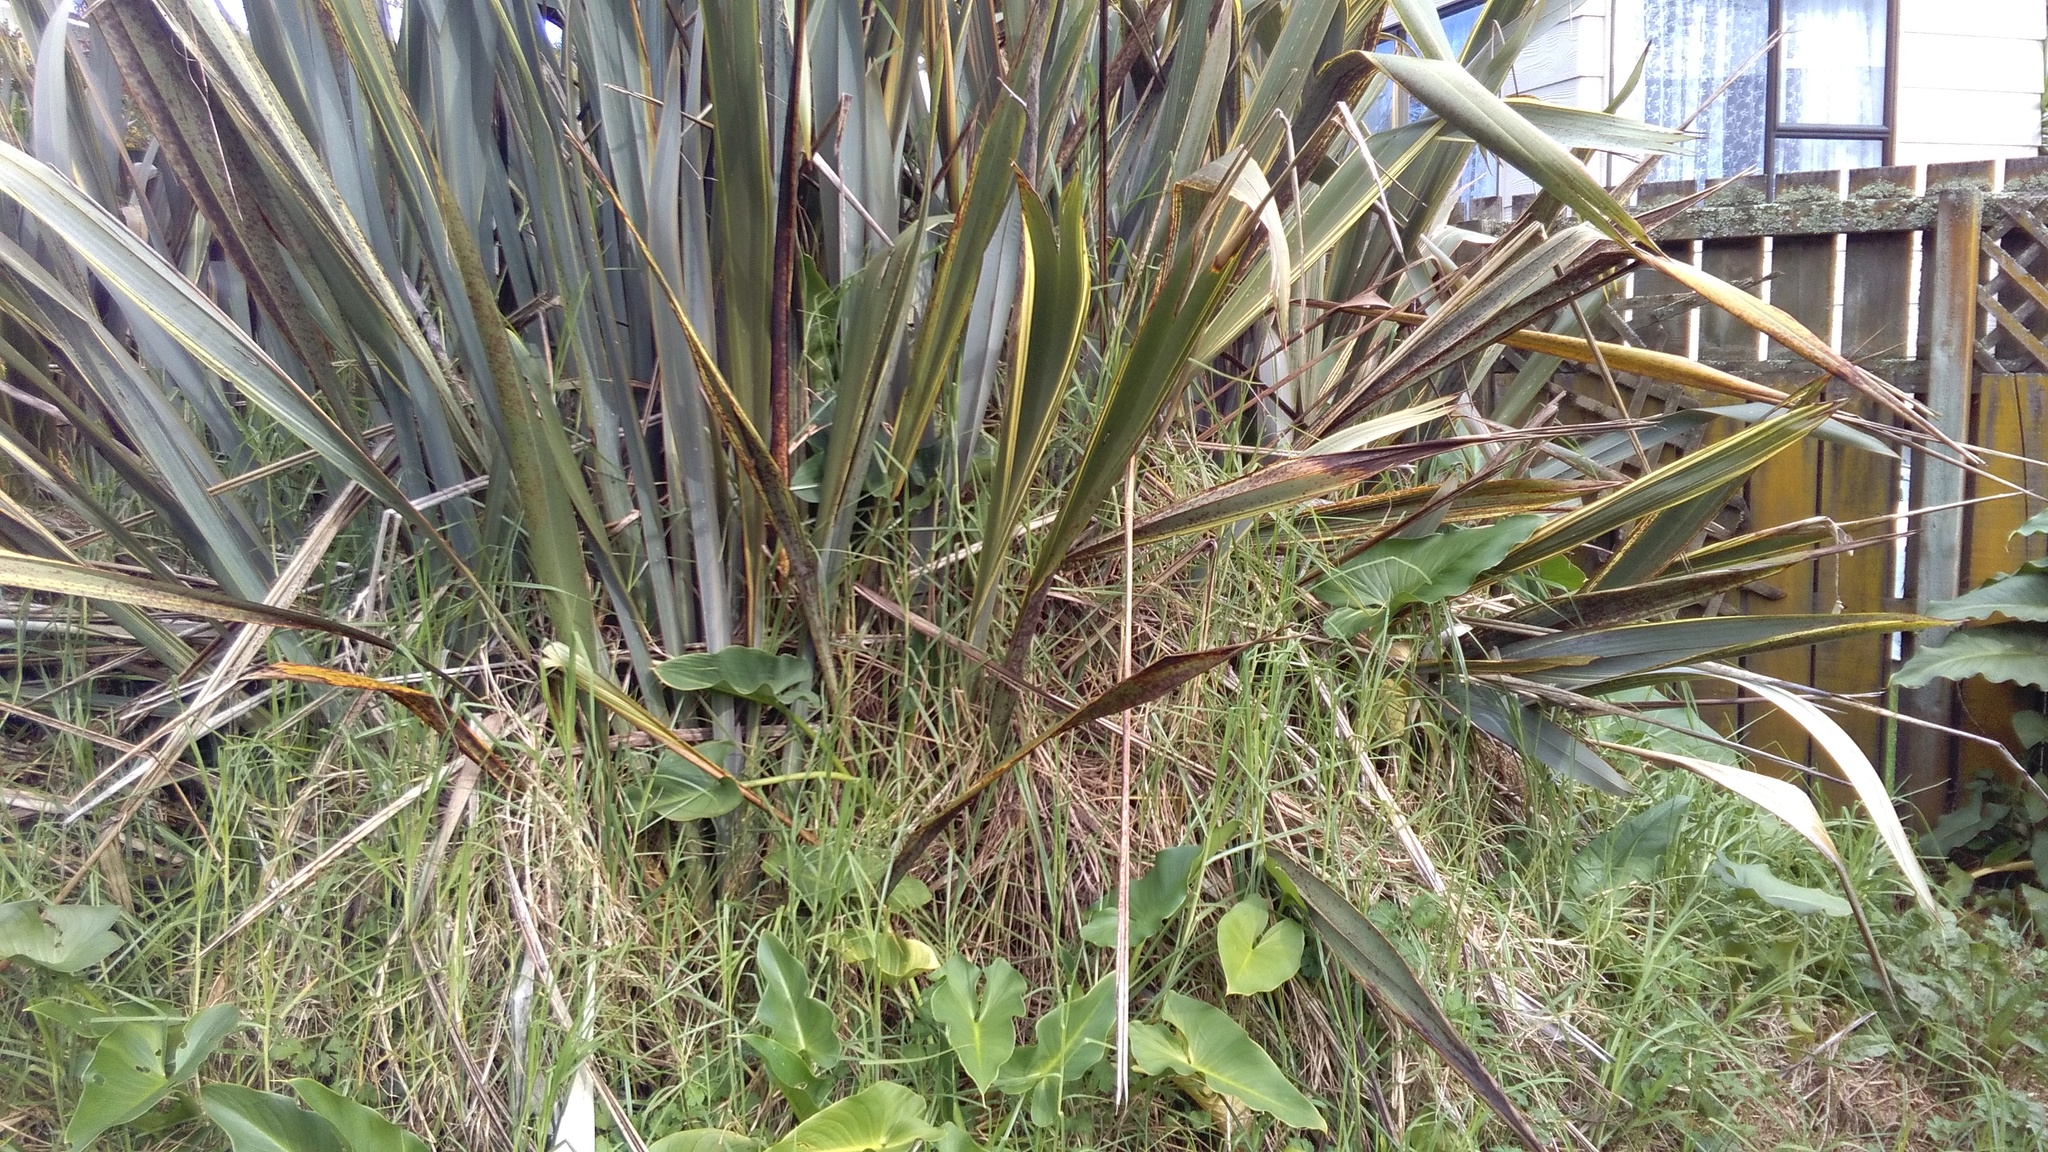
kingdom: Plantae
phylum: Tracheophyta
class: Liliopsida
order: Alismatales
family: Araceae
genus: Zantedeschia
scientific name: Zantedeschia aethiopica
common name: Altar-lily
